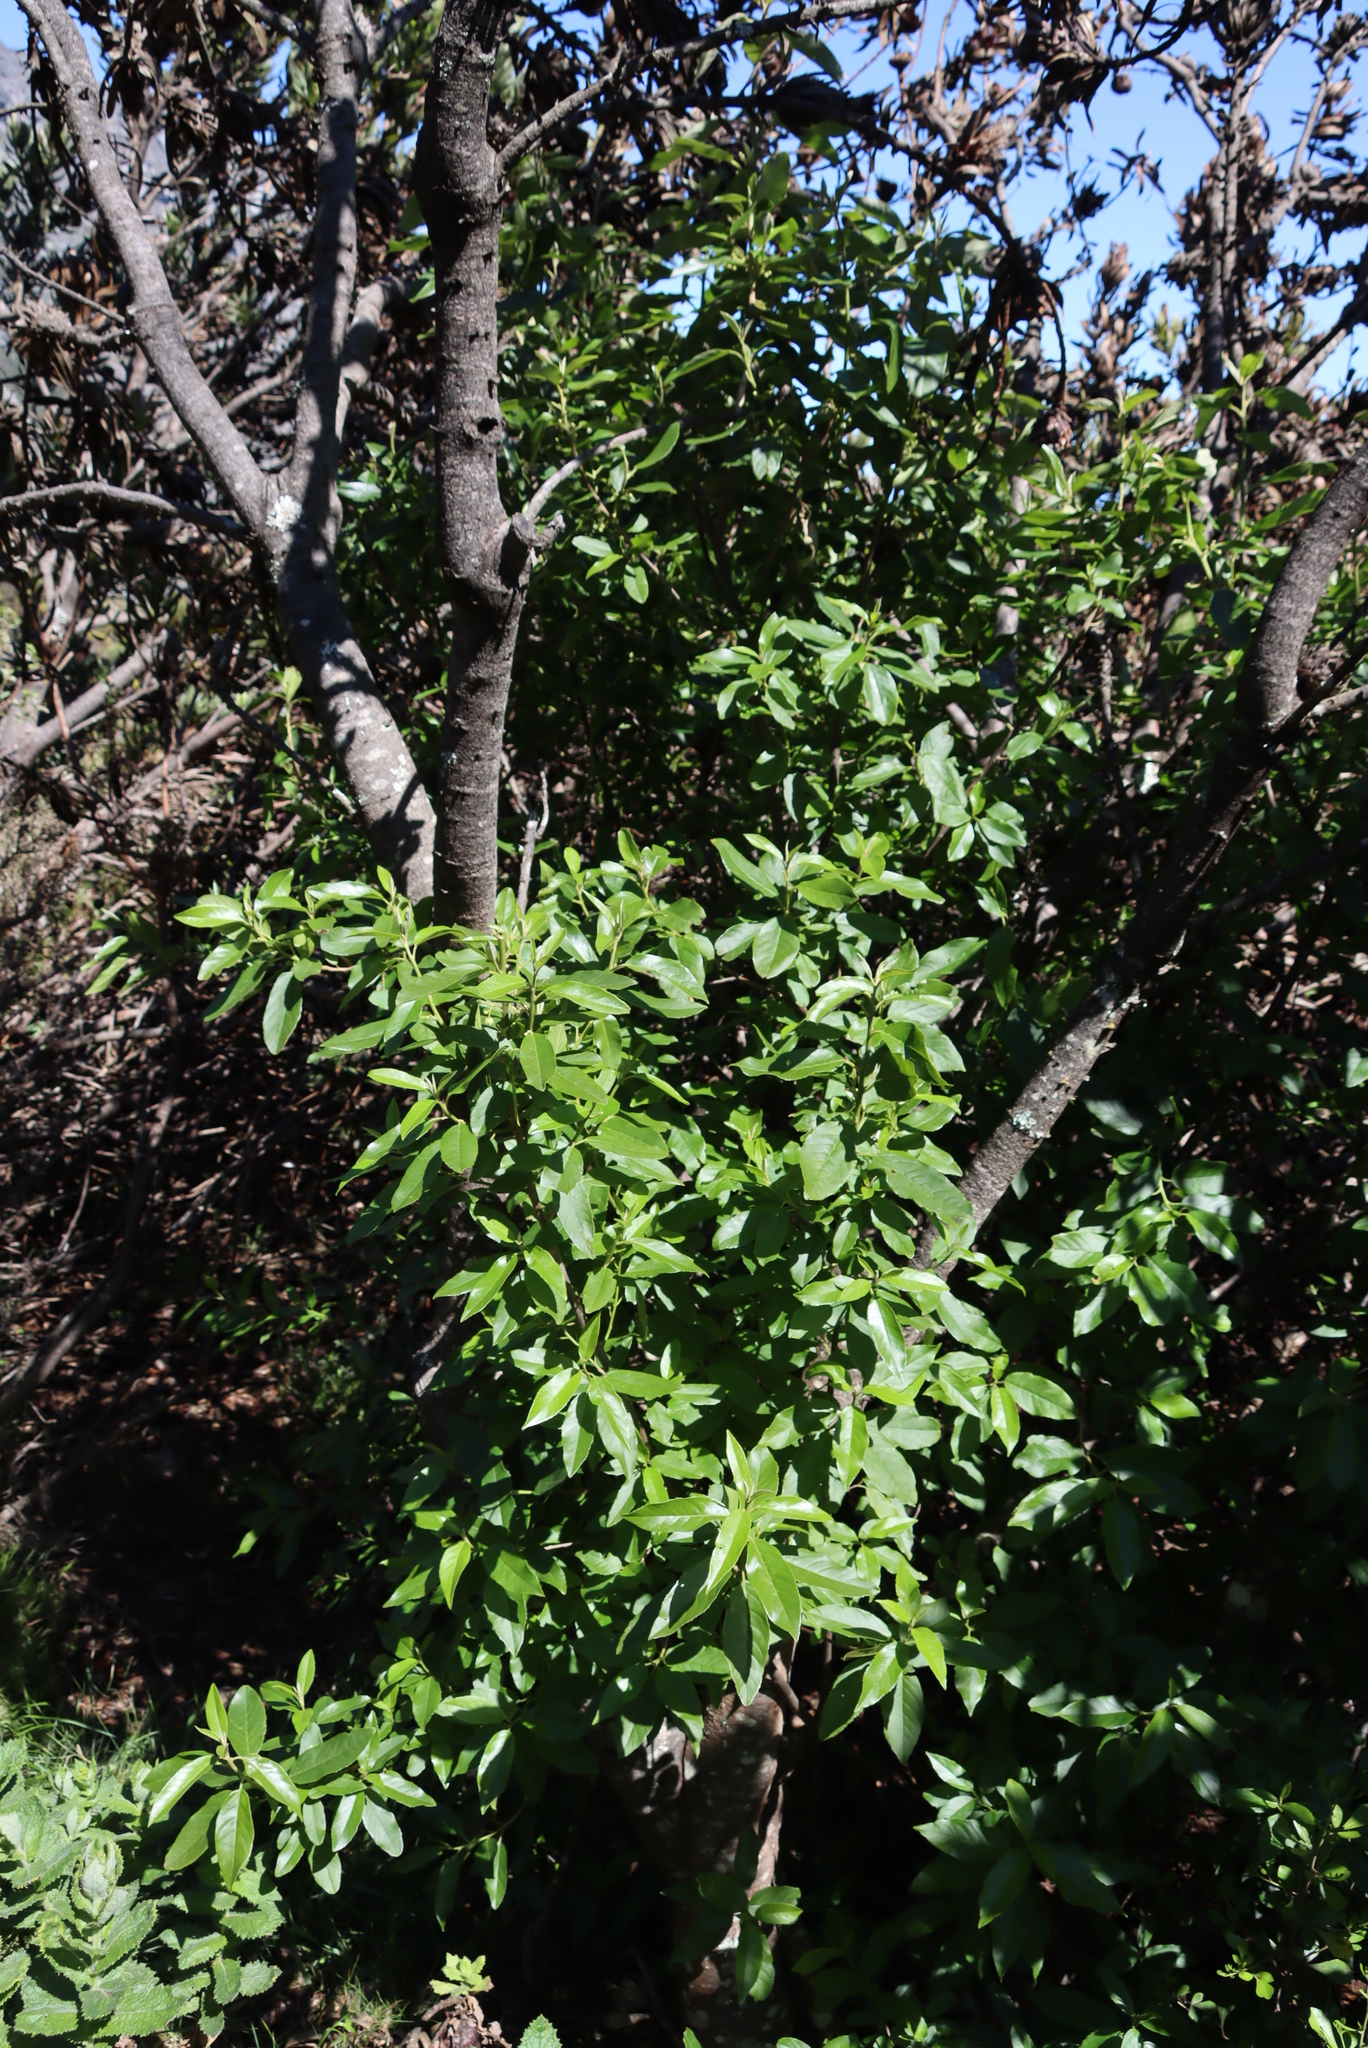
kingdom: Plantae
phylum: Tracheophyta
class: Magnoliopsida
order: Malpighiales
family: Achariaceae
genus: Kiggelaria
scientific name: Kiggelaria africana
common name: Wild peach
